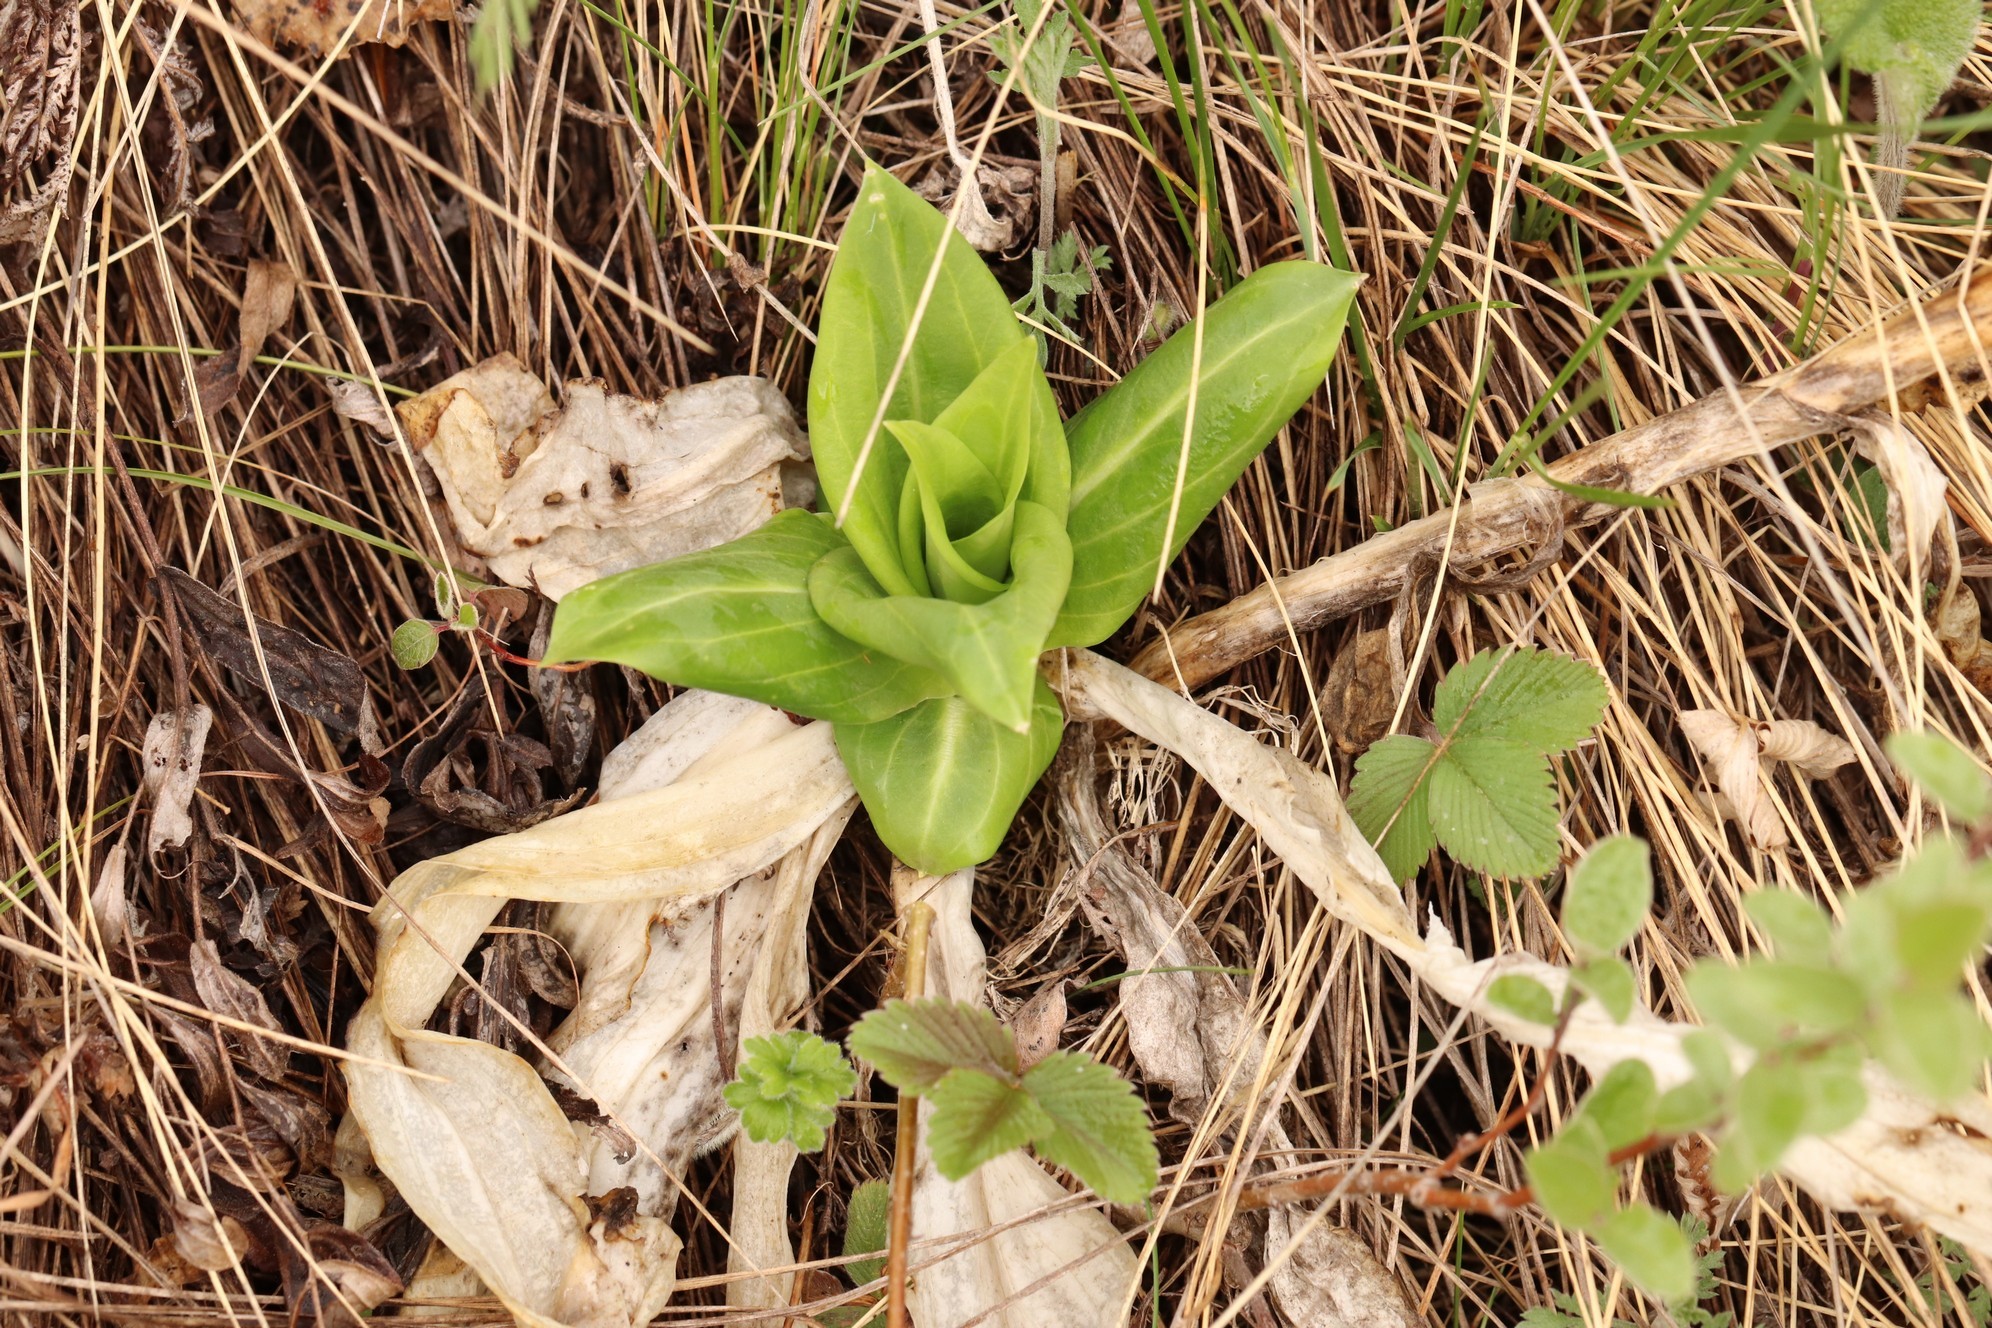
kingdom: Plantae
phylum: Tracheophyta
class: Magnoliopsida
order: Gentianales
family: Gentianaceae
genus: Gentiana
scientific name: Gentiana macrophylla
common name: Large-leaf gentian
